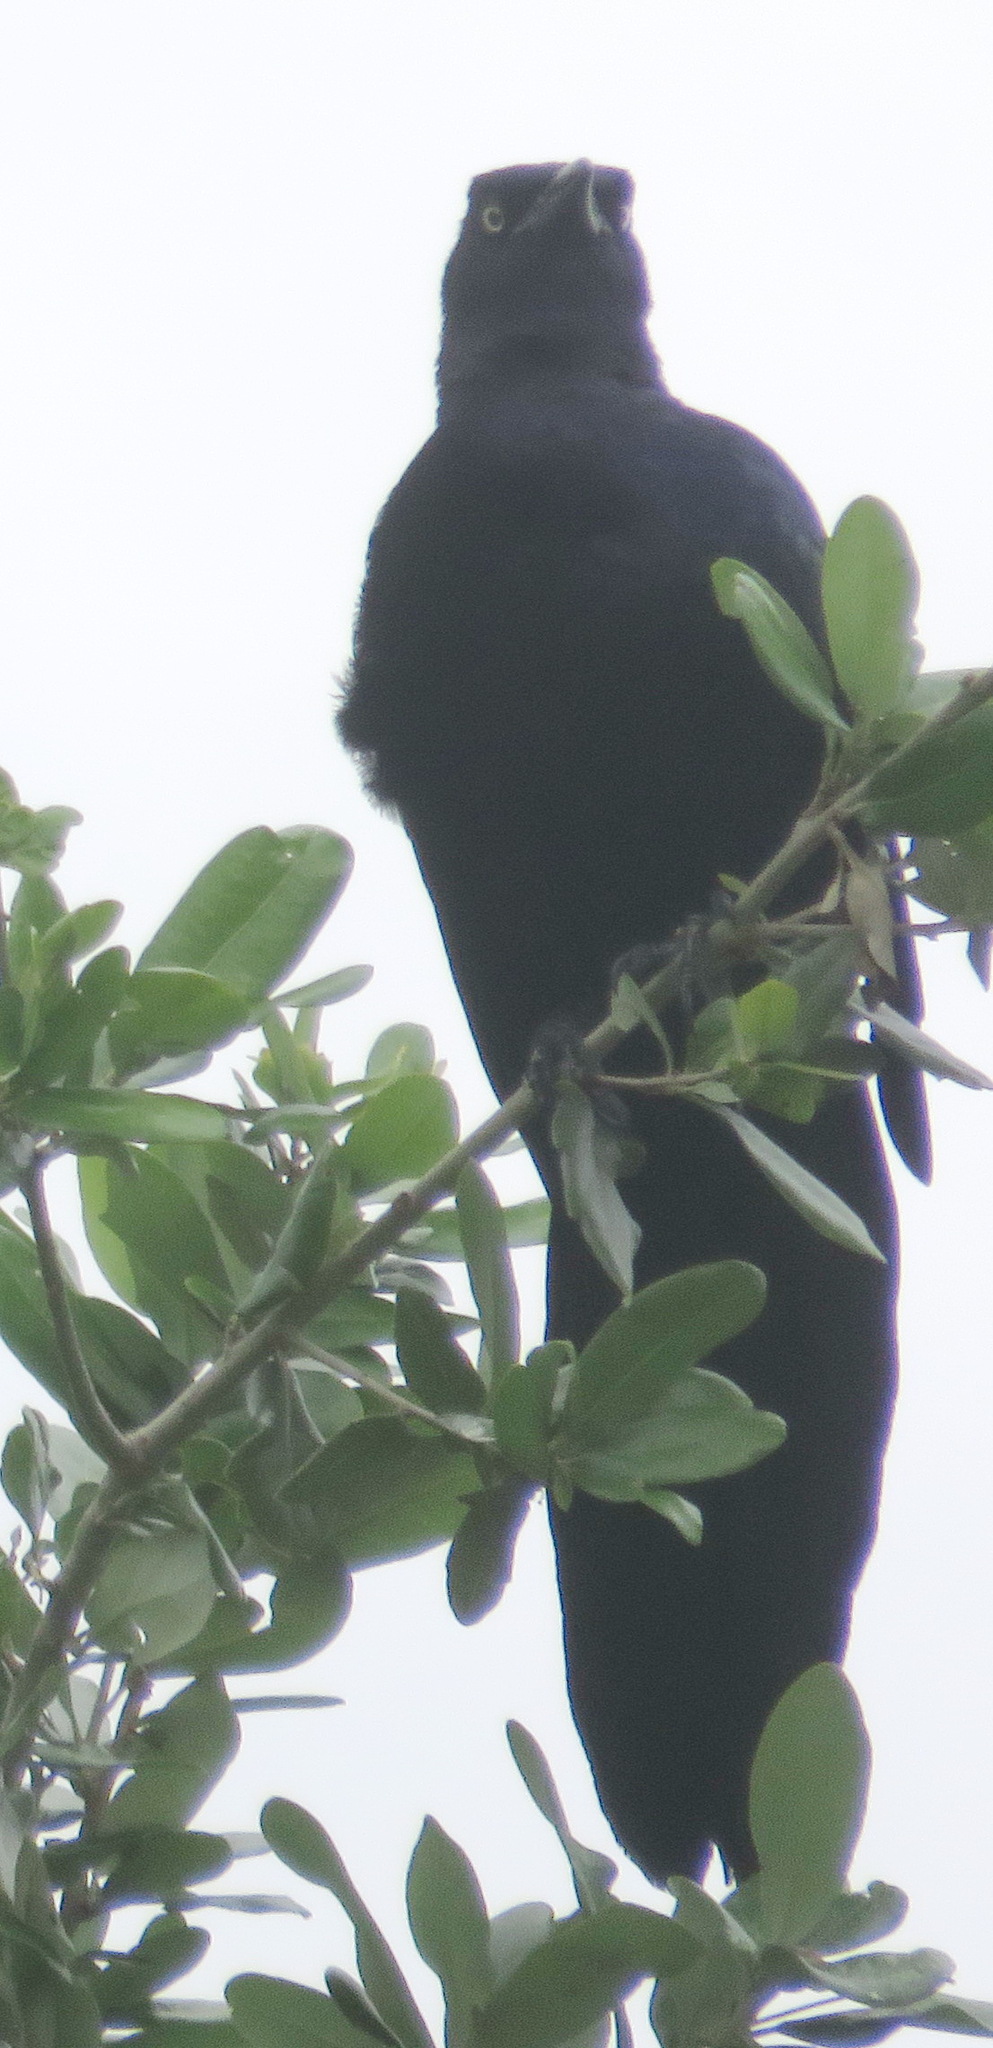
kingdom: Animalia
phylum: Chordata
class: Aves
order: Passeriformes
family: Icteridae
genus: Quiscalus
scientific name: Quiscalus mexicanus
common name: Great-tailed grackle
